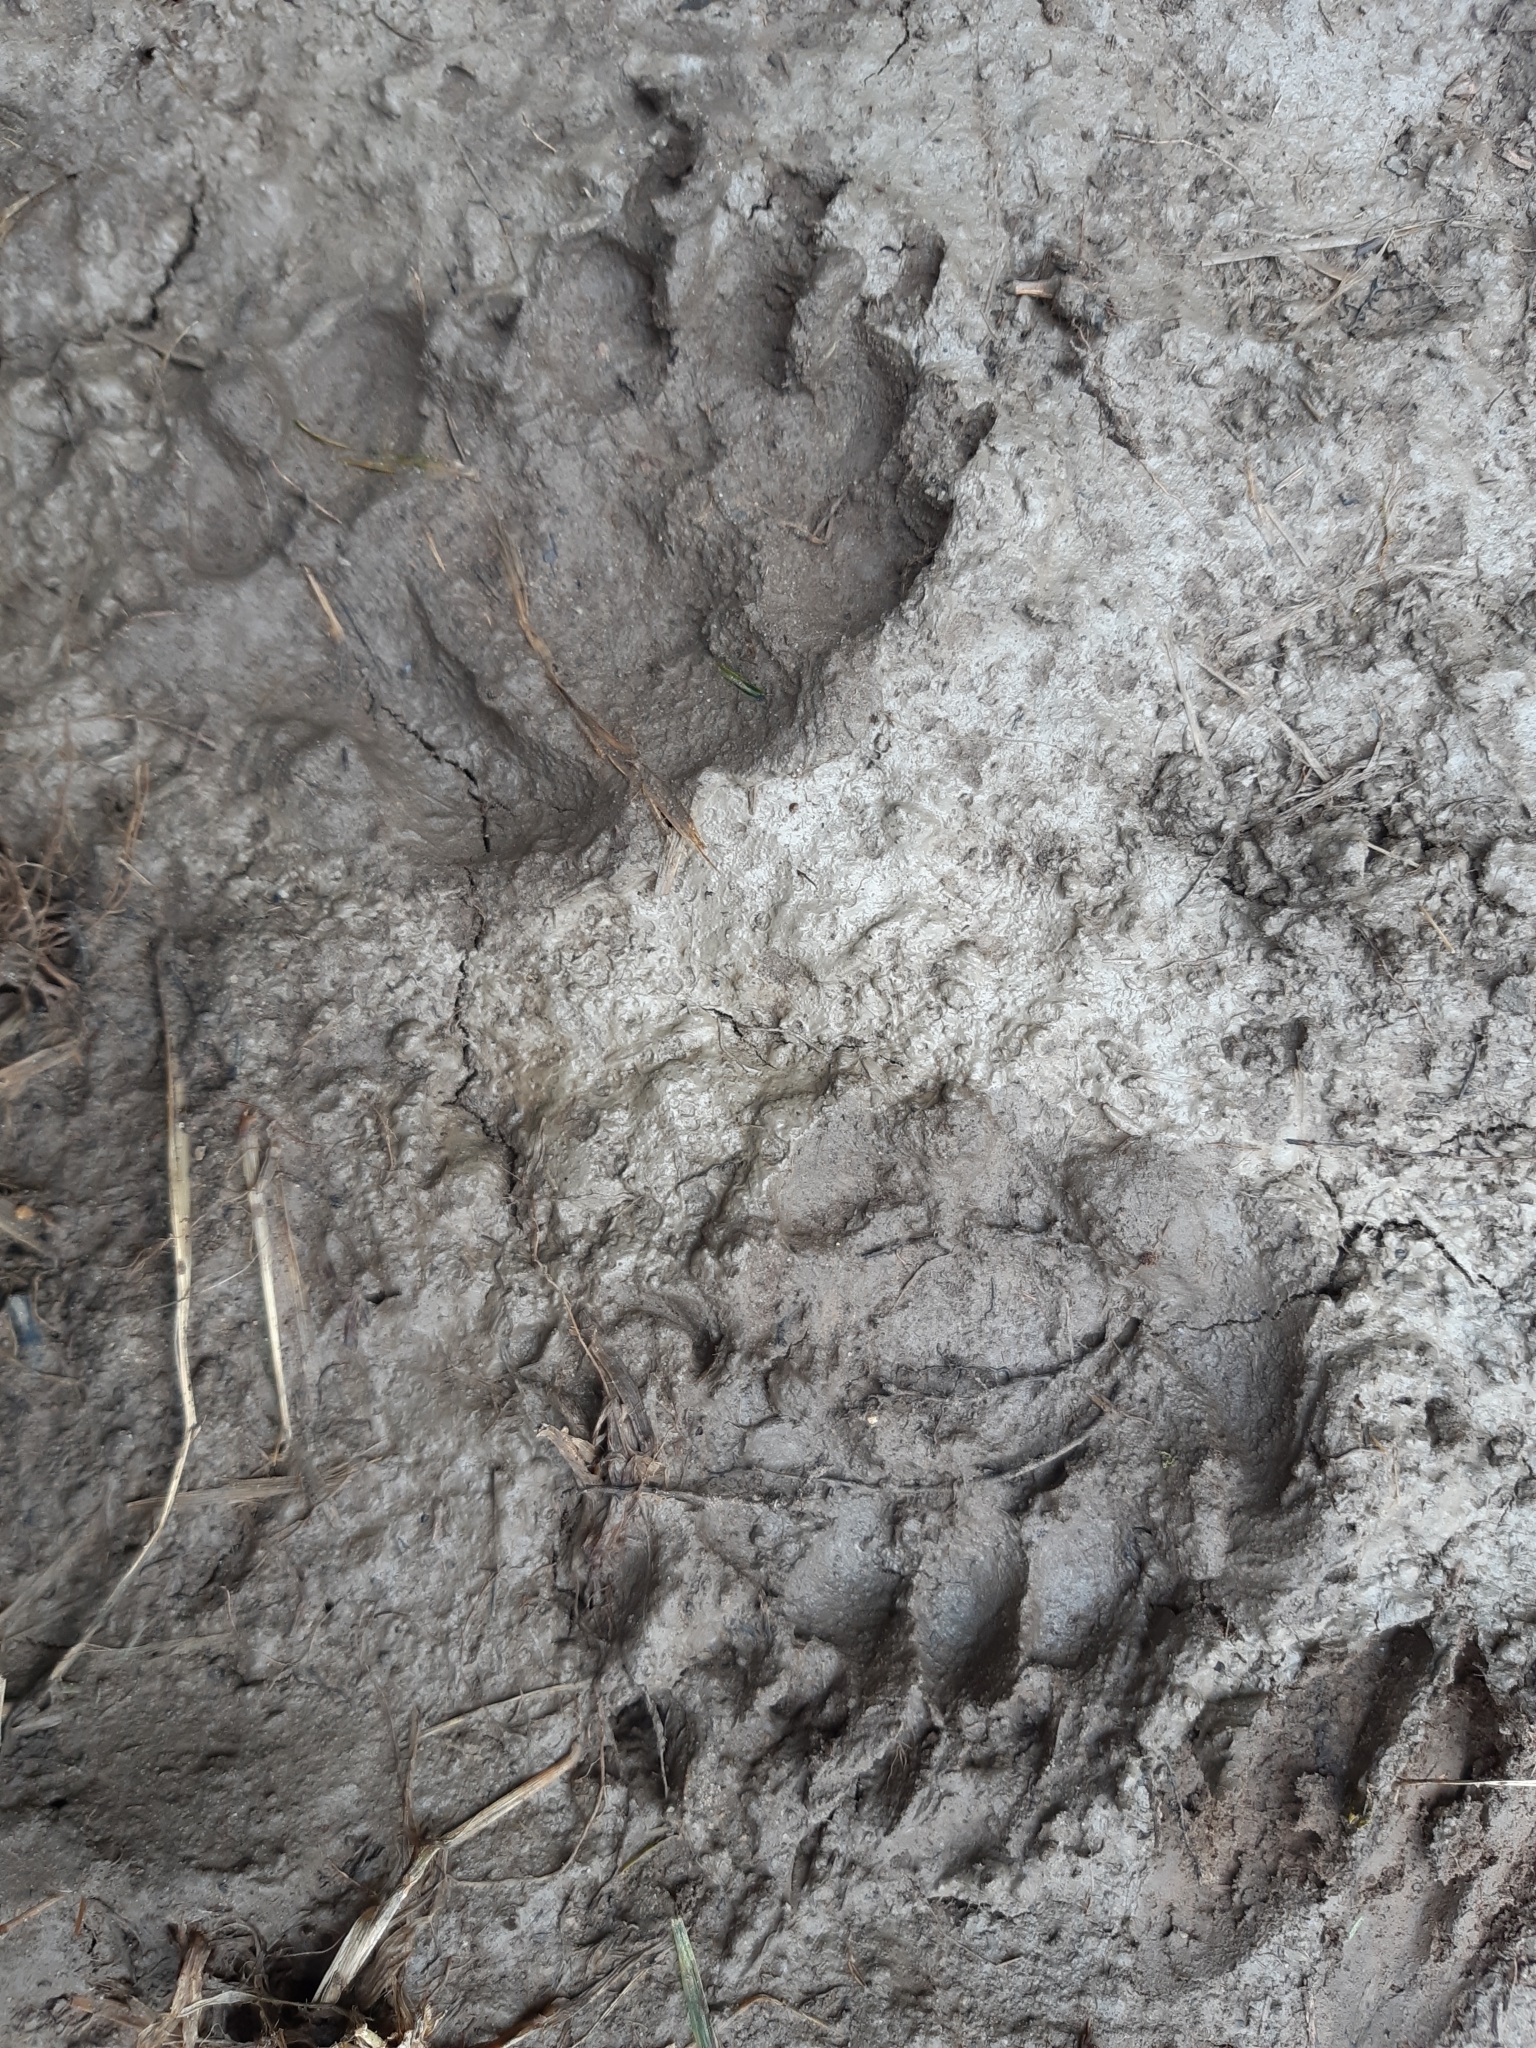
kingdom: Animalia
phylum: Chordata
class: Mammalia
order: Carnivora
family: Mustelidae
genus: Meles
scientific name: Meles meles
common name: Eurasian badger
